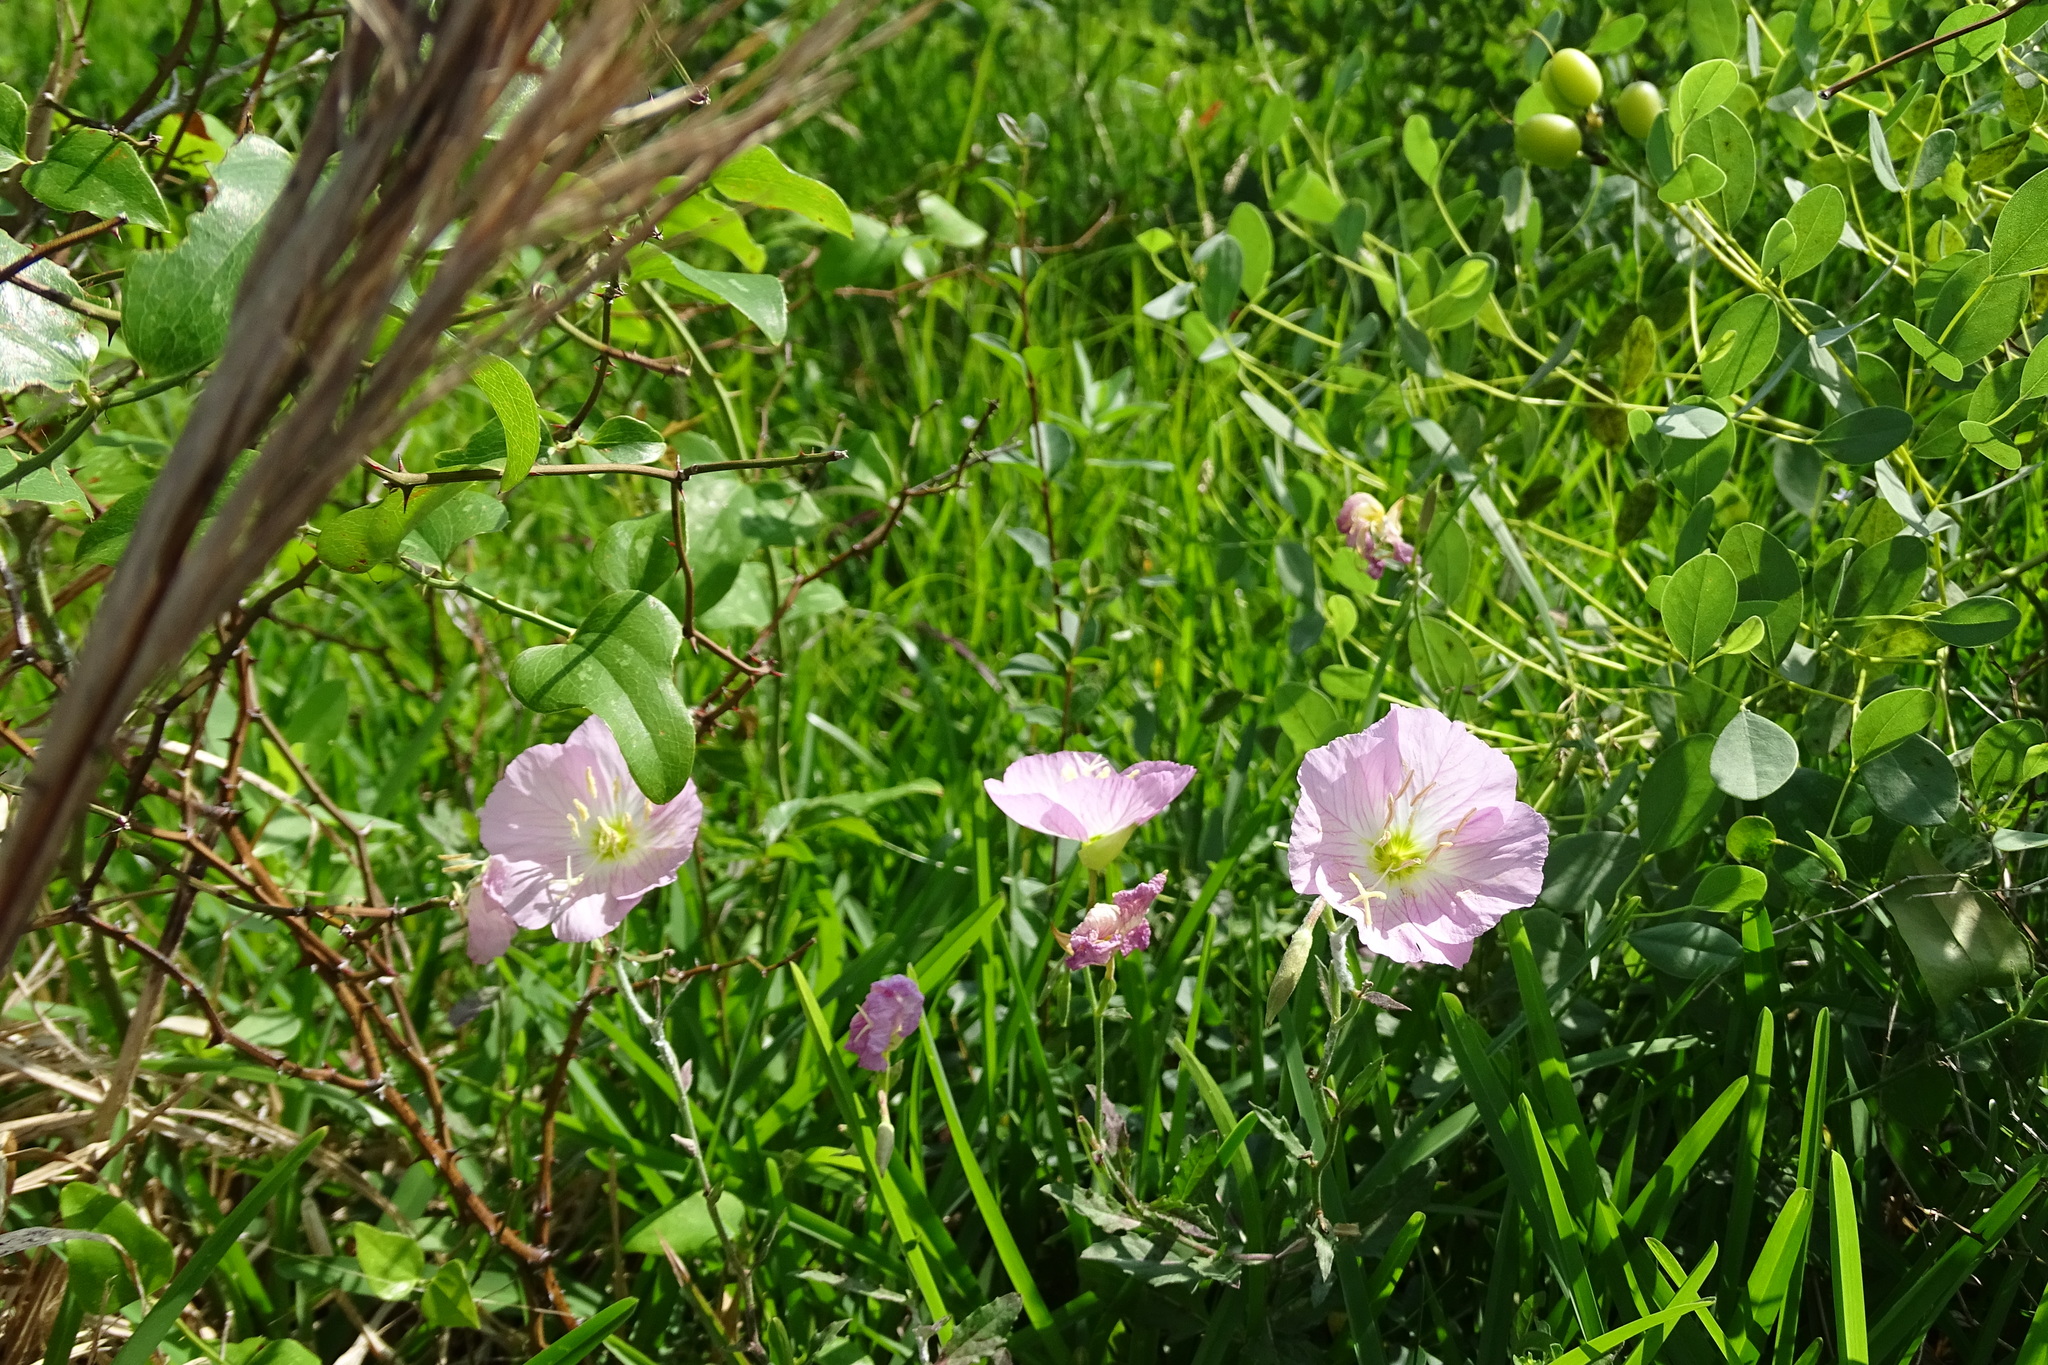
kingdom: Plantae
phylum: Tracheophyta
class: Magnoliopsida
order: Myrtales
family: Onagraceae
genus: Oenothera
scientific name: Oenothera speciosa
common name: White evening-primrose
